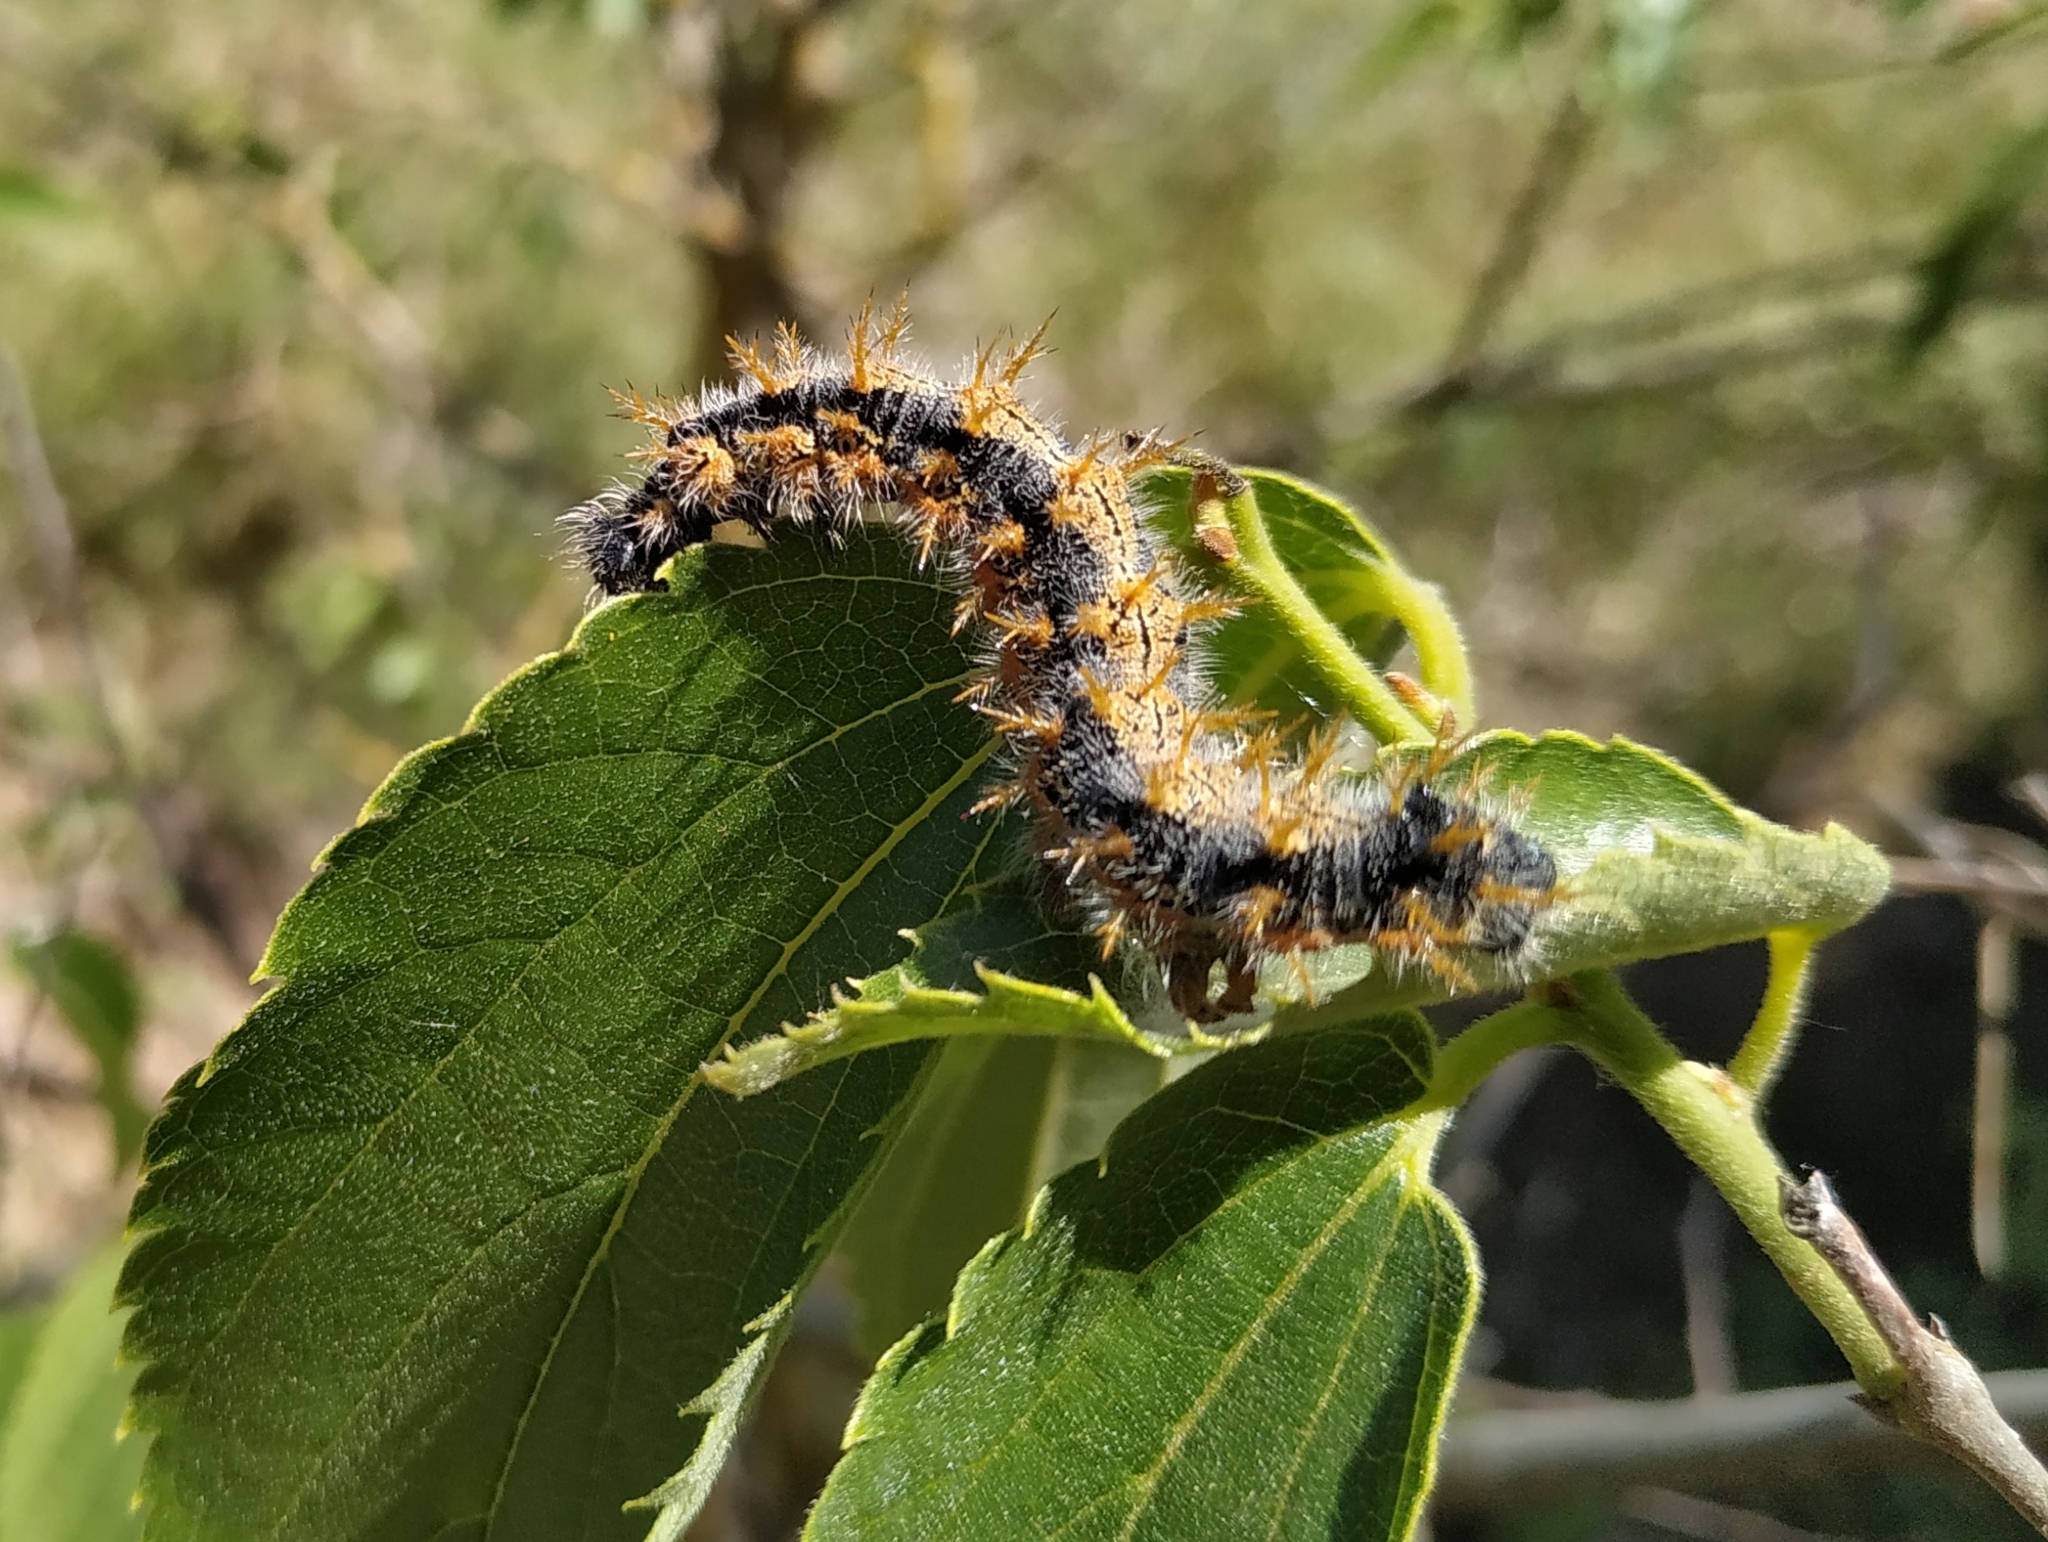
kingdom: Animalia
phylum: Arthropoda
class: Insecta
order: Lepidoptera
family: Nymphalidae
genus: Nymphalis
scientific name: Nymphalis polychloros
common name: Large tortoiseshell
